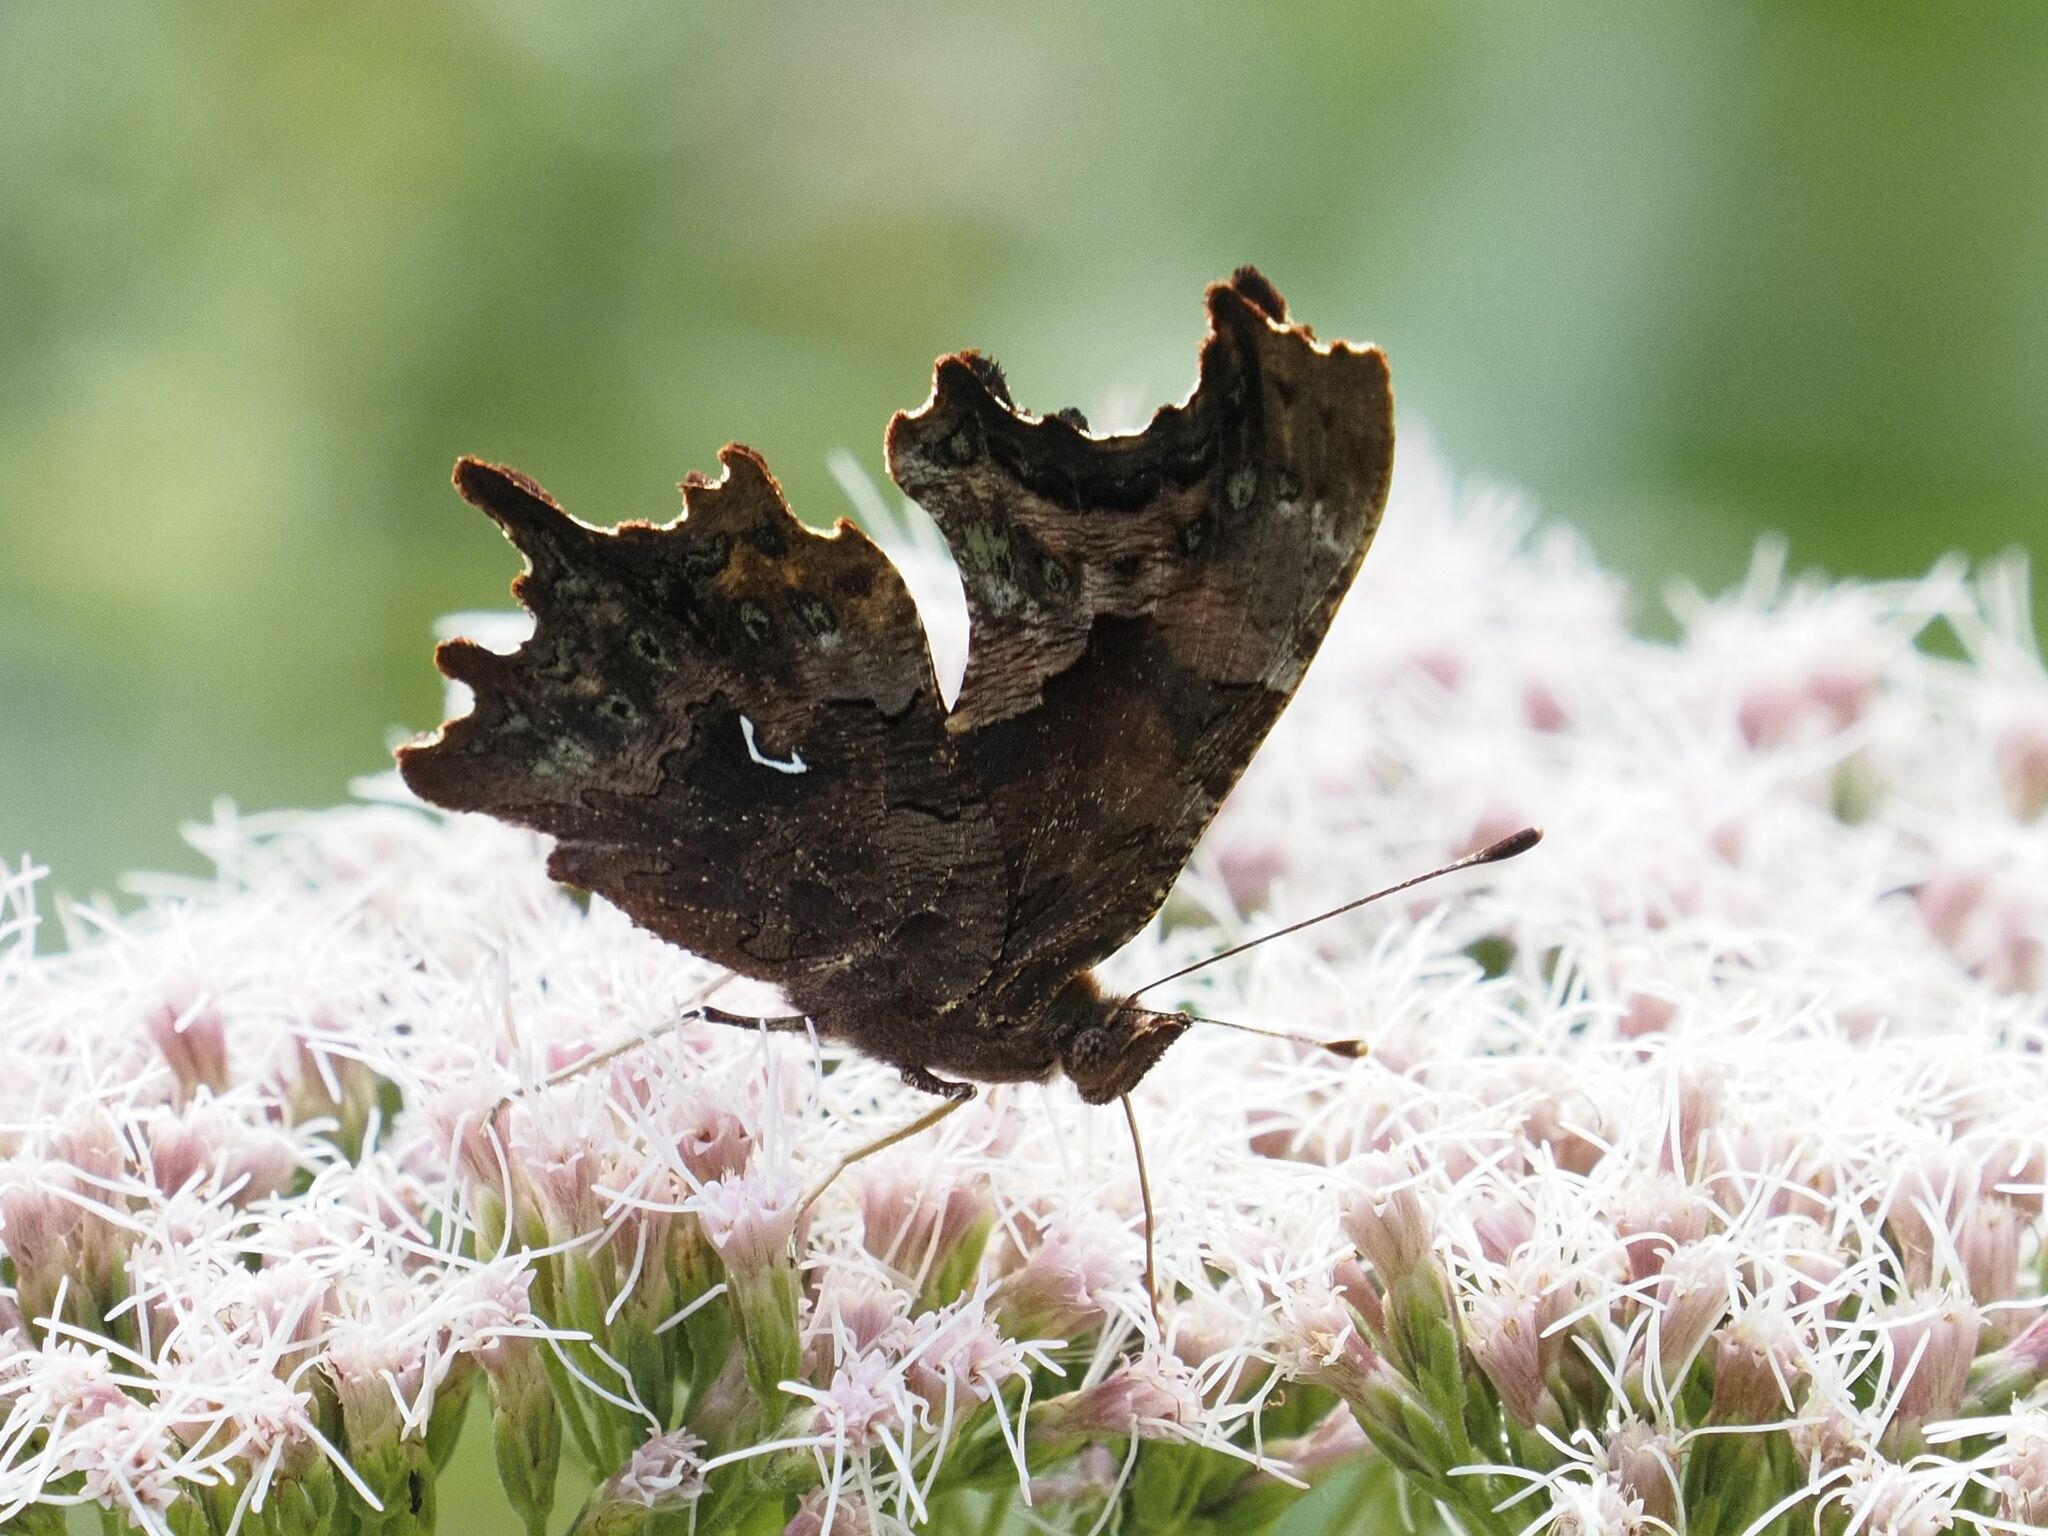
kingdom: Animalia
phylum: Arthropoda
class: Insecta
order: Lepidoptera
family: Nymphalidae
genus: Polygonia
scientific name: Polygonia c-album
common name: Comma
